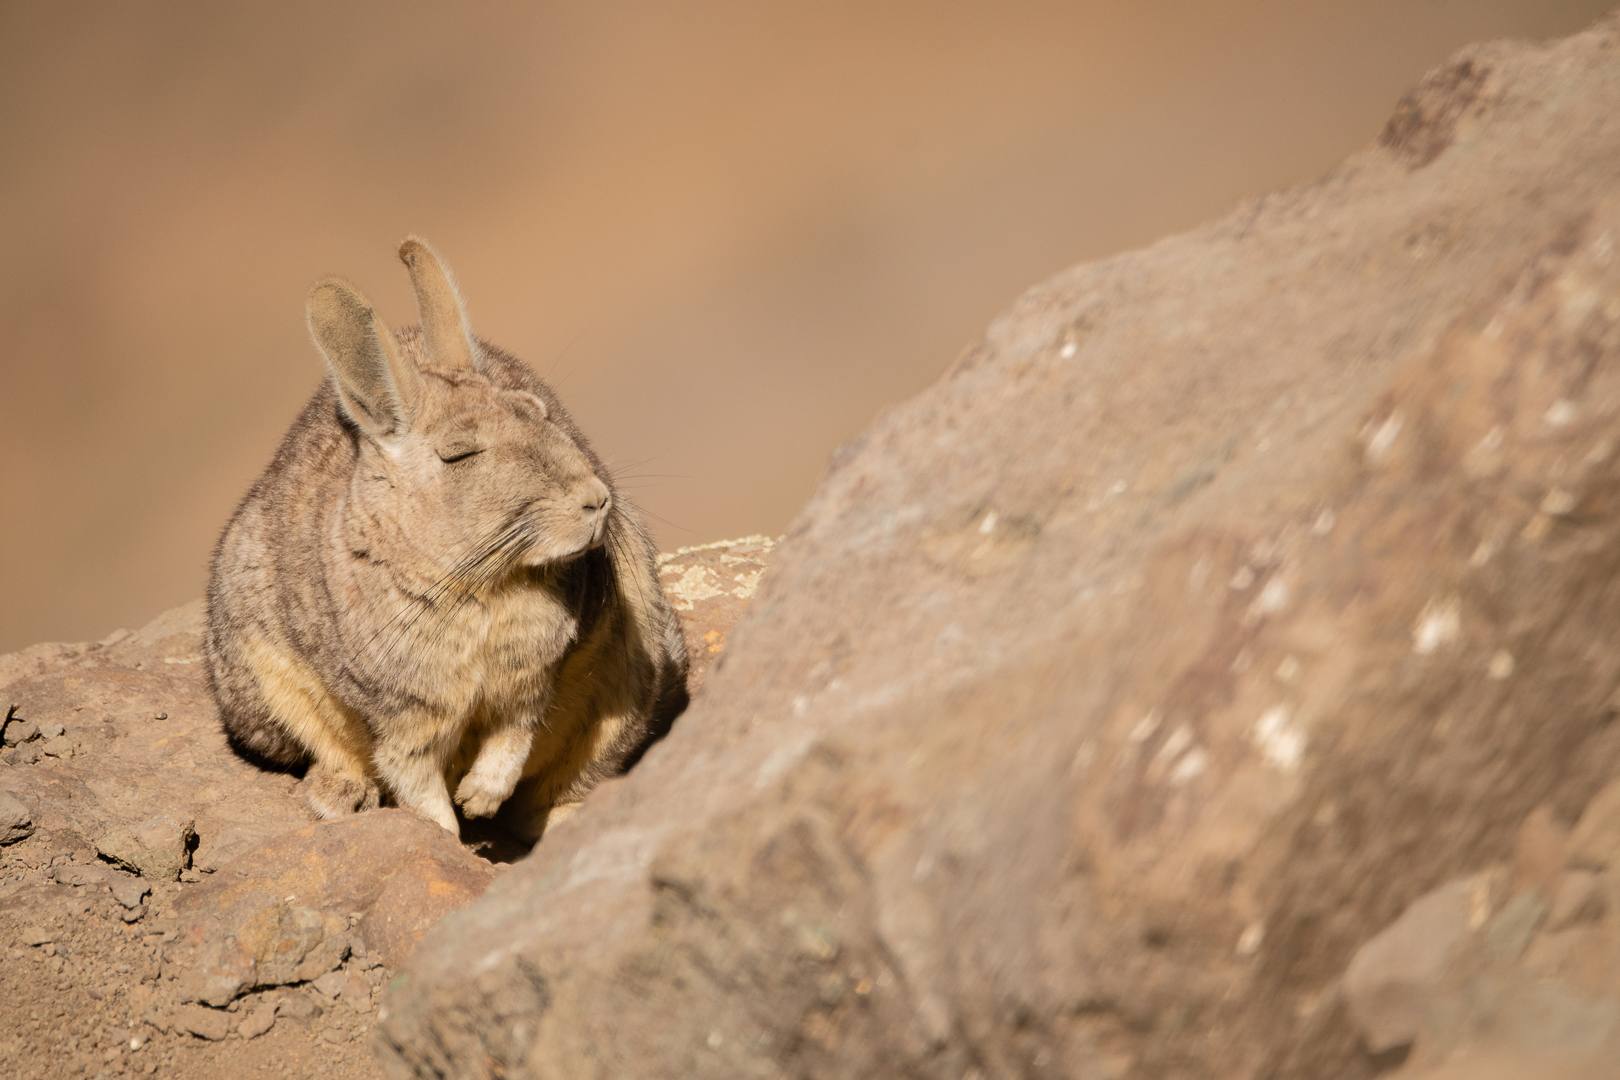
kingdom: Animalia
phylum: Chordata
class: Mammalia
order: Rodentia
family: Chinchillidae
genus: Lagidium
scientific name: Lagidium viscacia
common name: Southern viscacha
